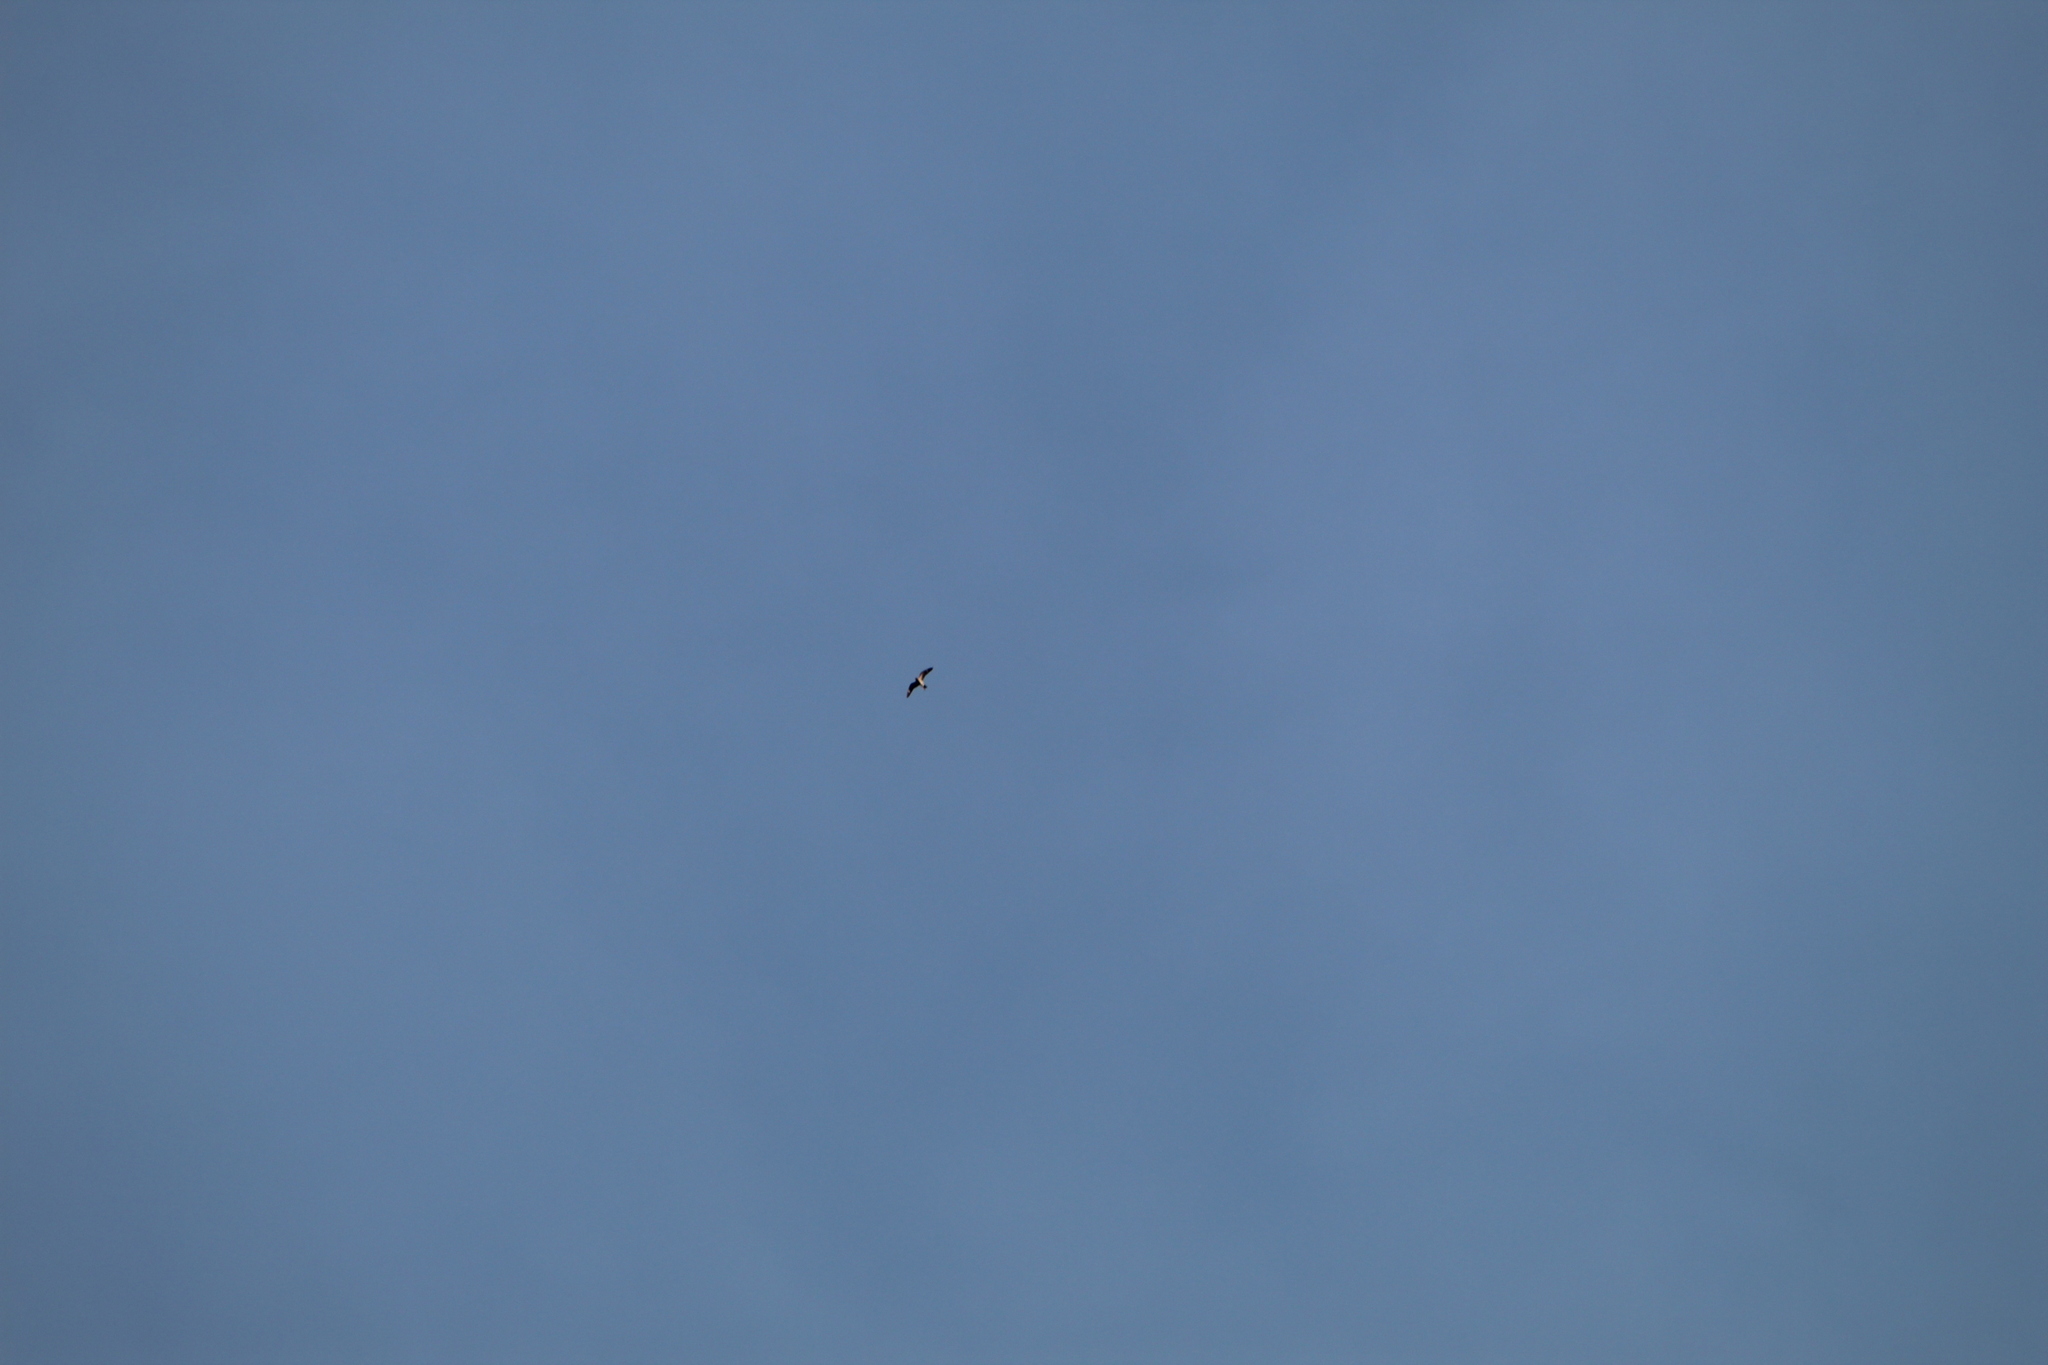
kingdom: Animalia
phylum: Chordata
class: Aves
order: Caprimulgiformes
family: Caprimulgidae
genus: Chordeiles
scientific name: Chordeiles minor
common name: Common nighthawk
